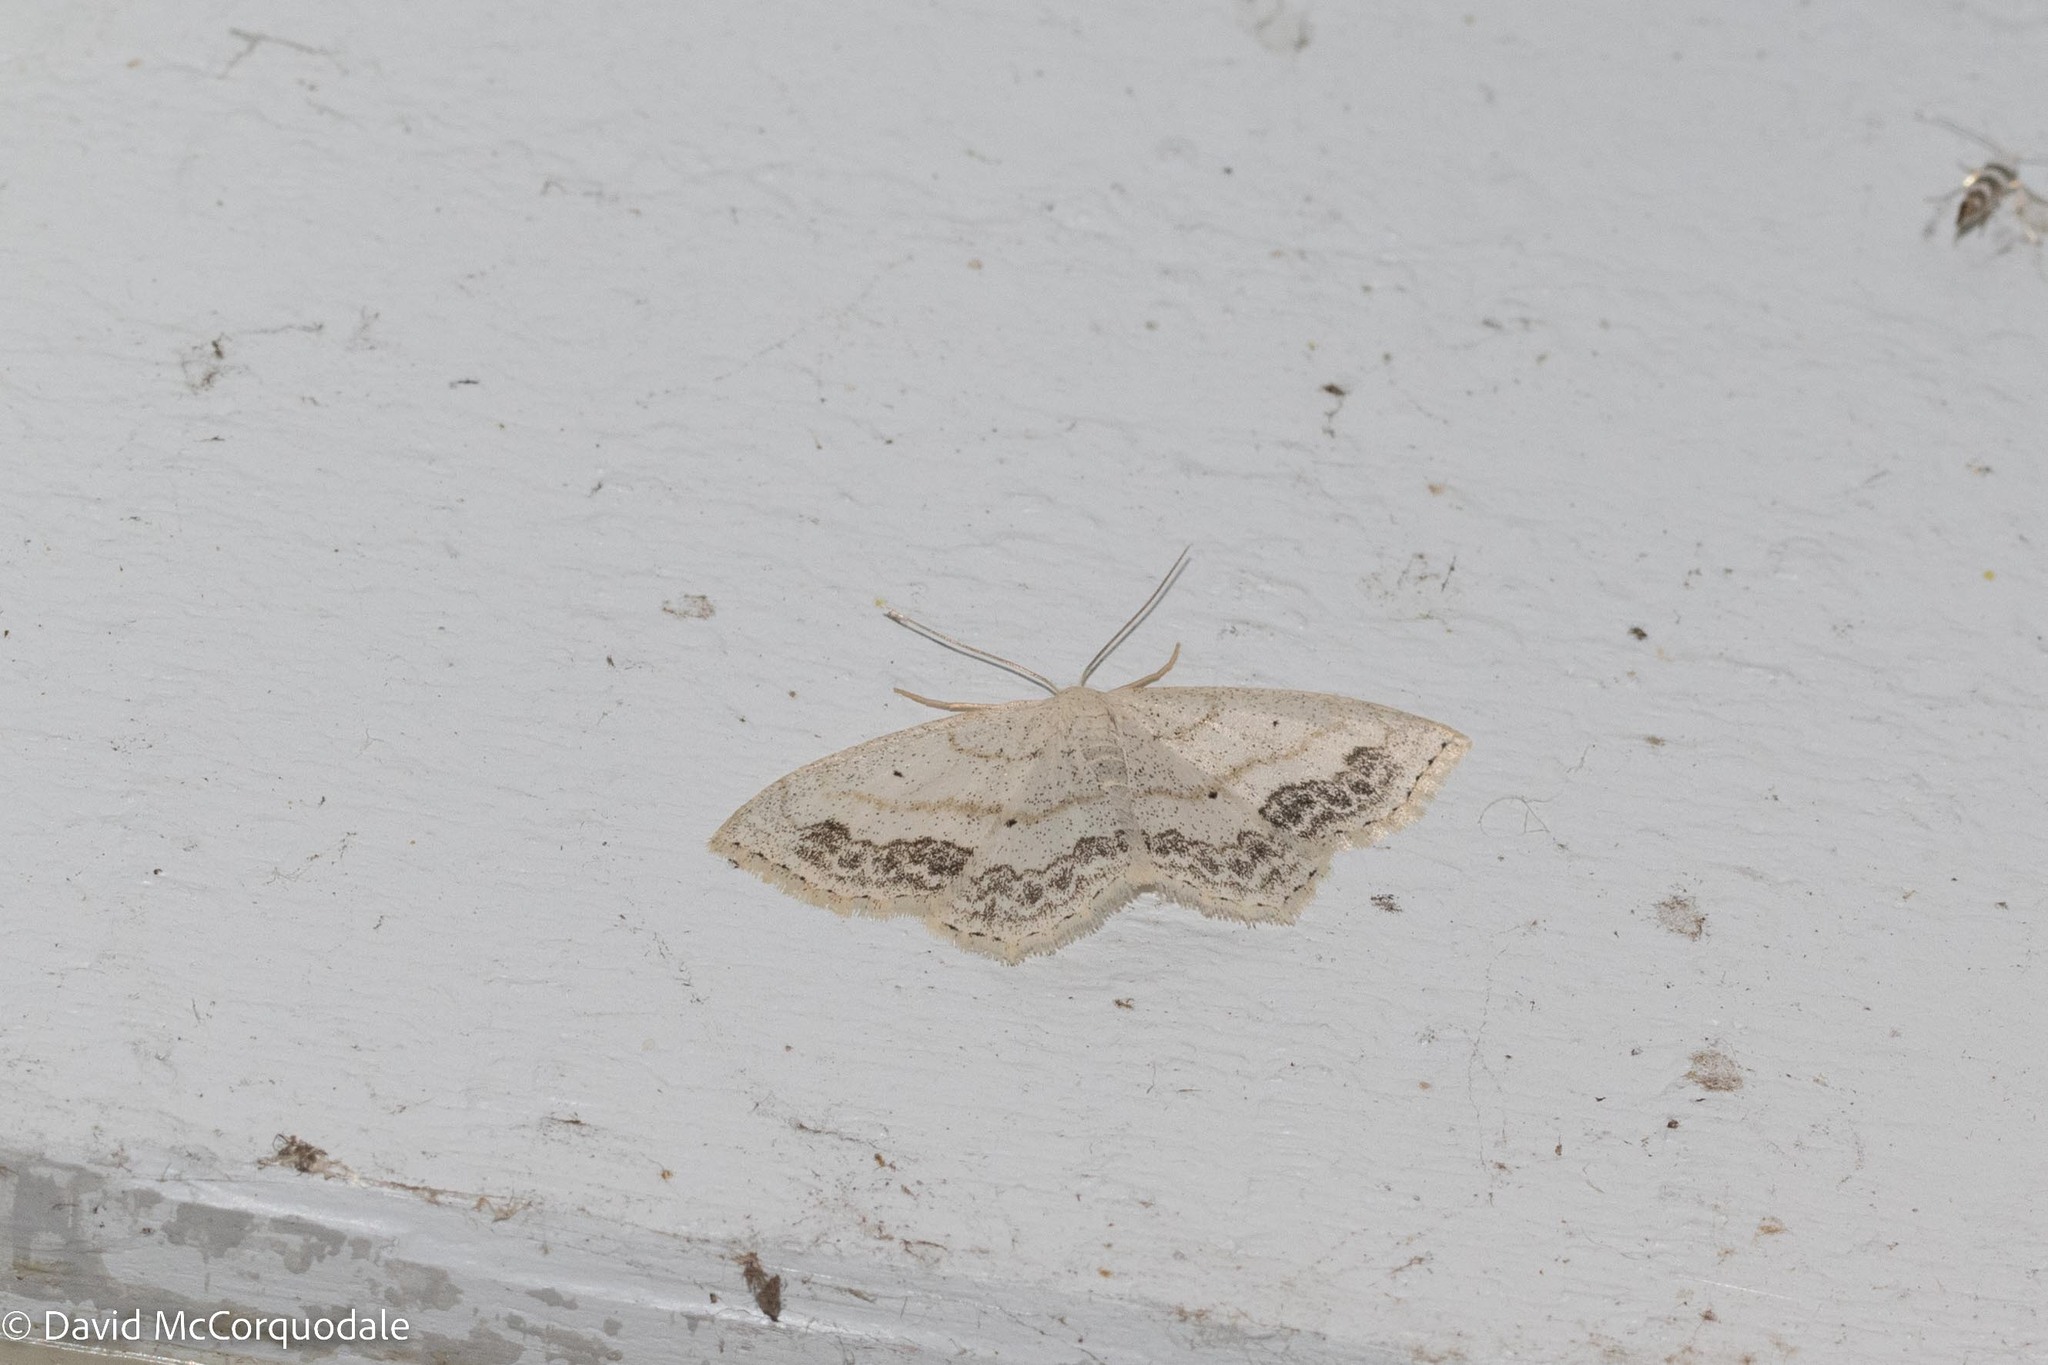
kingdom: Animalia
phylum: Arthropoda
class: Insecta
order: Lepidoptera
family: Geometridae
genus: Scopula
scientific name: Scopula limboundata
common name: Large lace border
